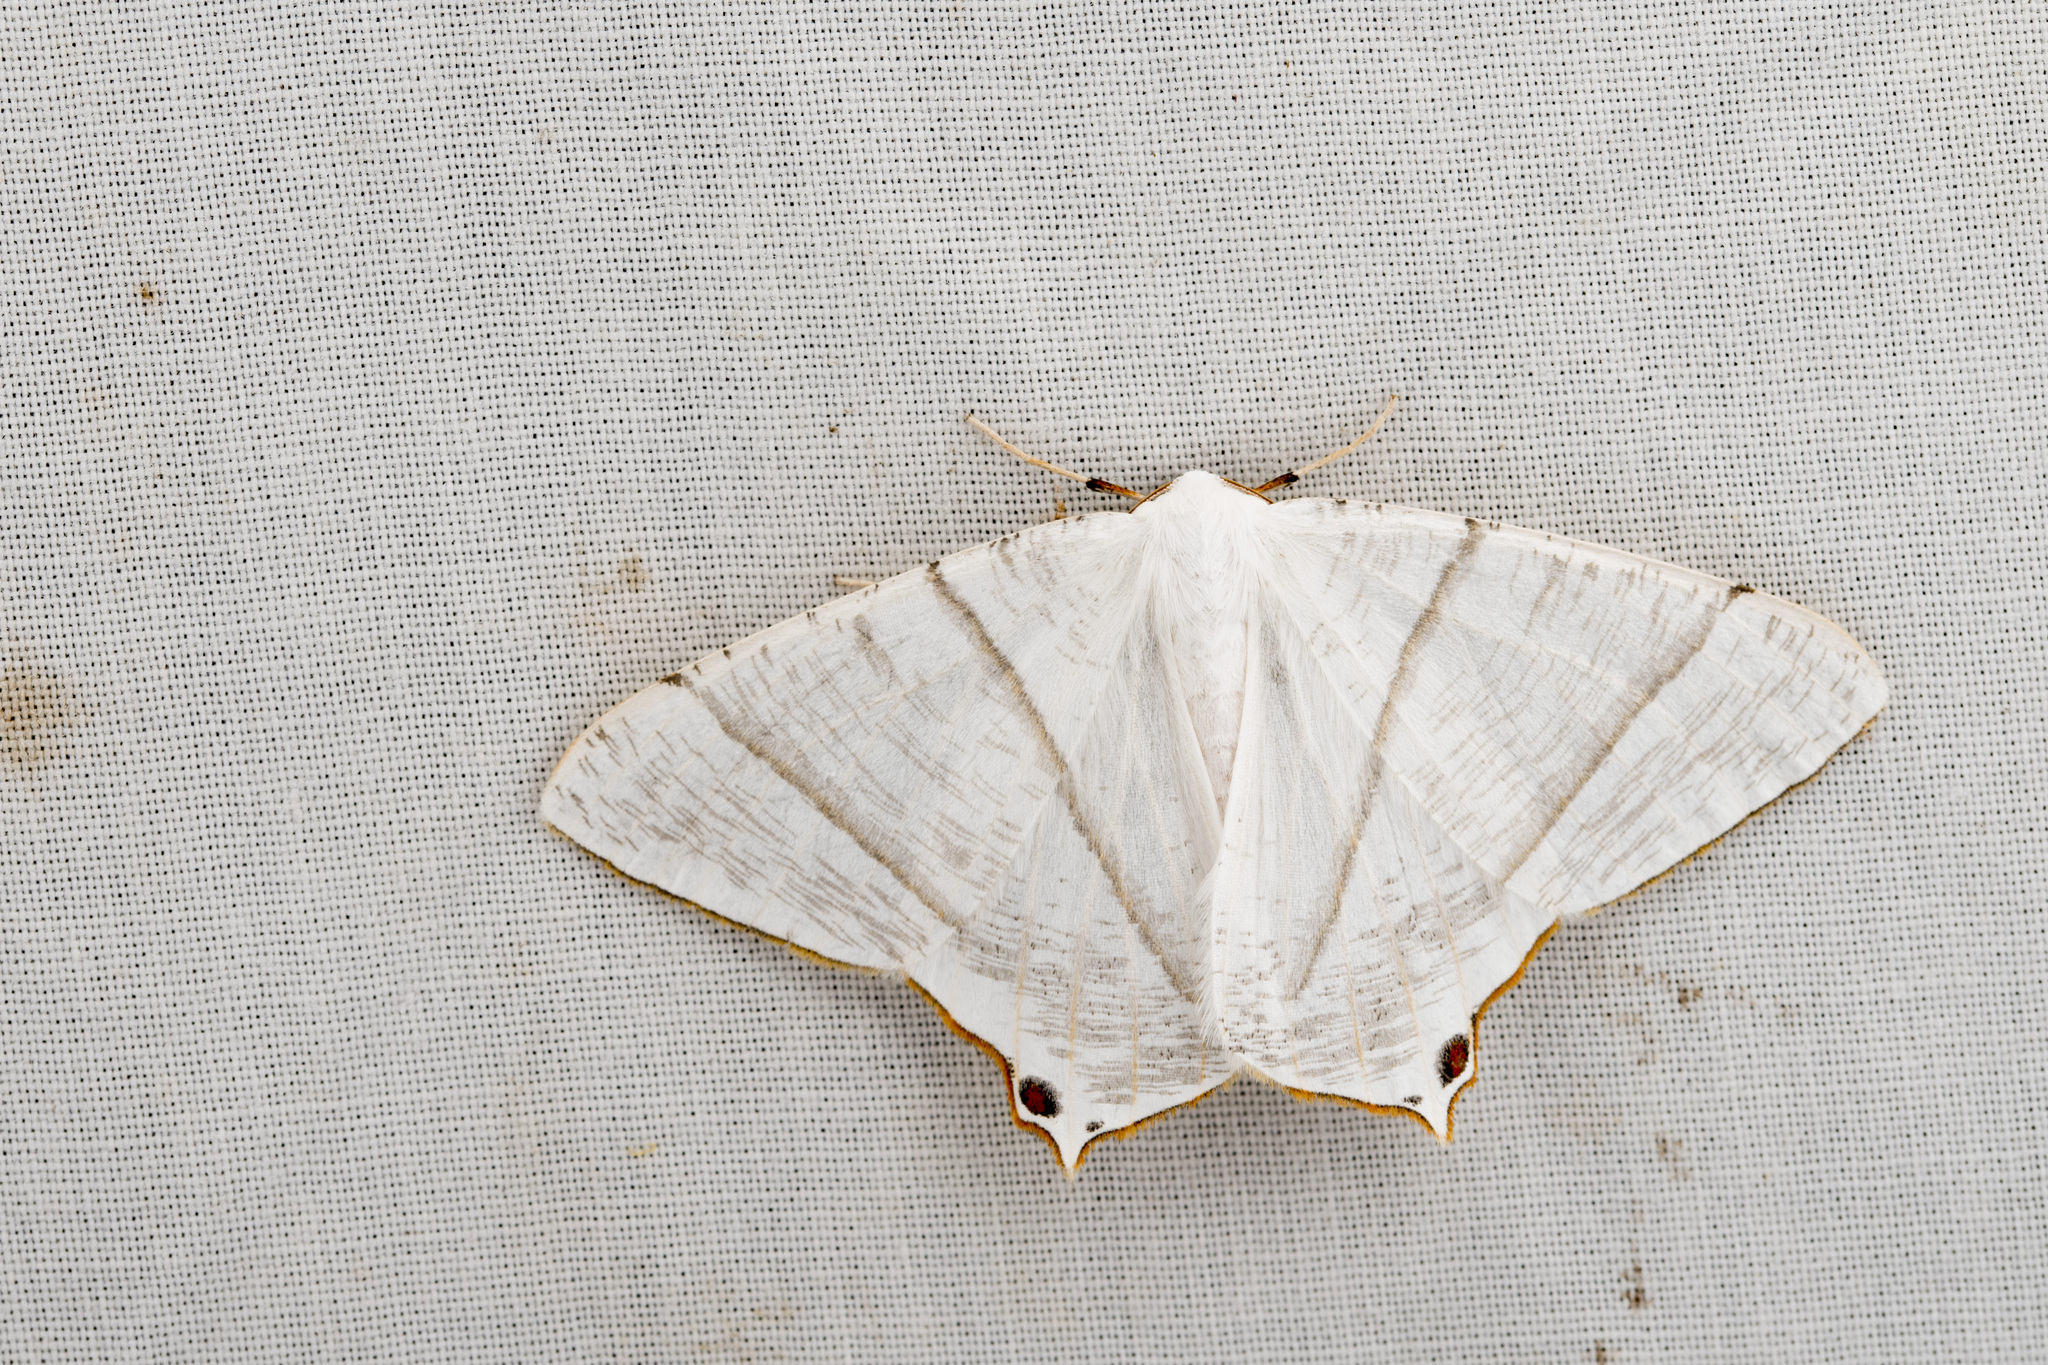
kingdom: Animalia
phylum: Arthropoda
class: Insecta
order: Lepidoptera
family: Geometridae
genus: Ourapteryx
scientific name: Ourapteryx similaria
